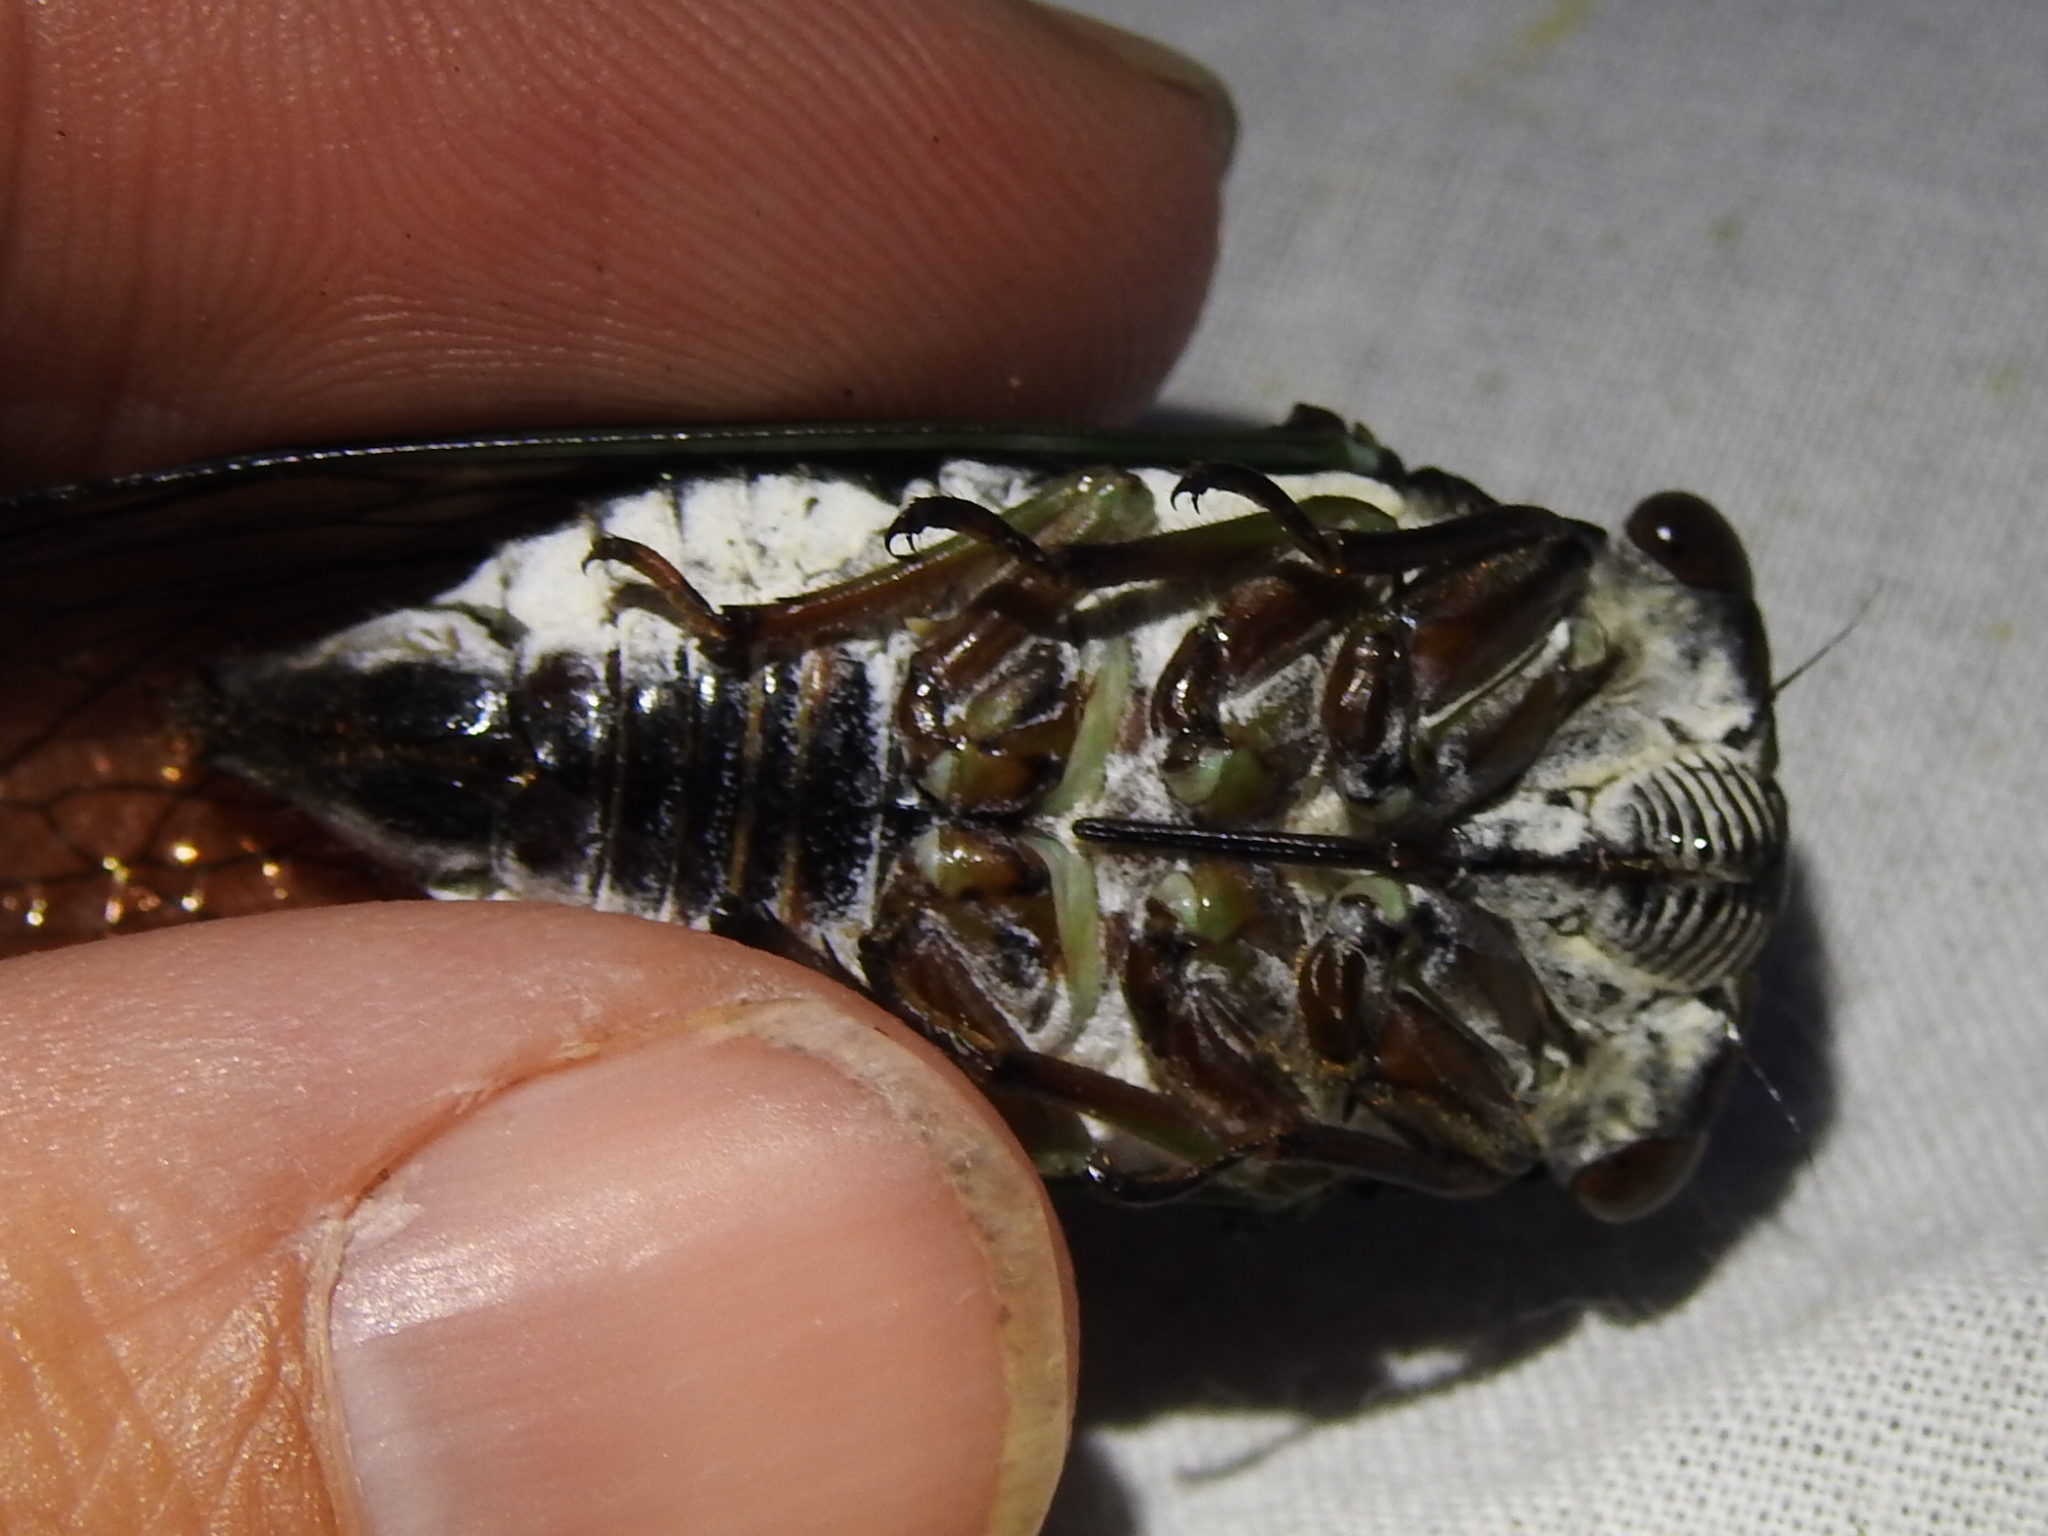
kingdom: Animalia
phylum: Arthropoda
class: Insecta
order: Hemiptera
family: Cicadidae
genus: Neotibicen
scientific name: Neotibicen lyricen
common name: Lyric cicada
